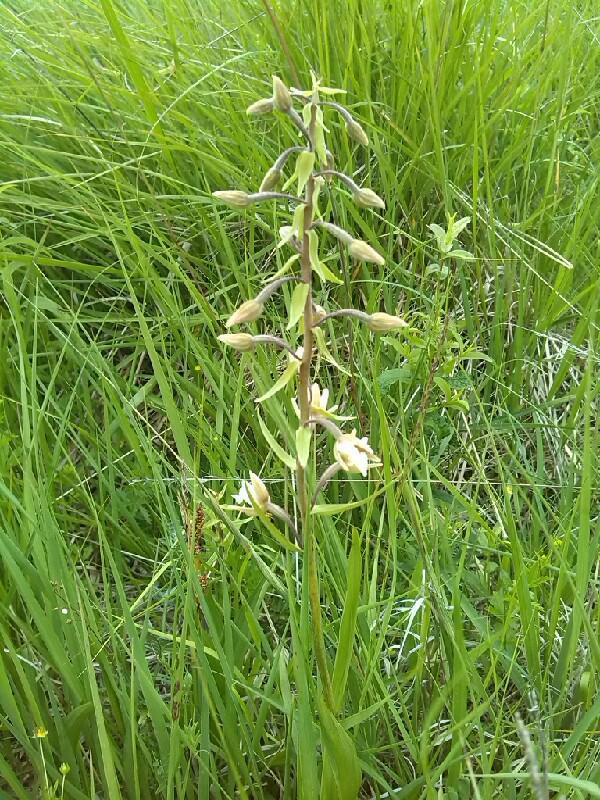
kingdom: Plantae
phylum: Tracheophyta
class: Liliopsida
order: Asparagales
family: Orchidaceae
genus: Epipactis
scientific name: Epipactis palustris
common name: Marsh helleborine
